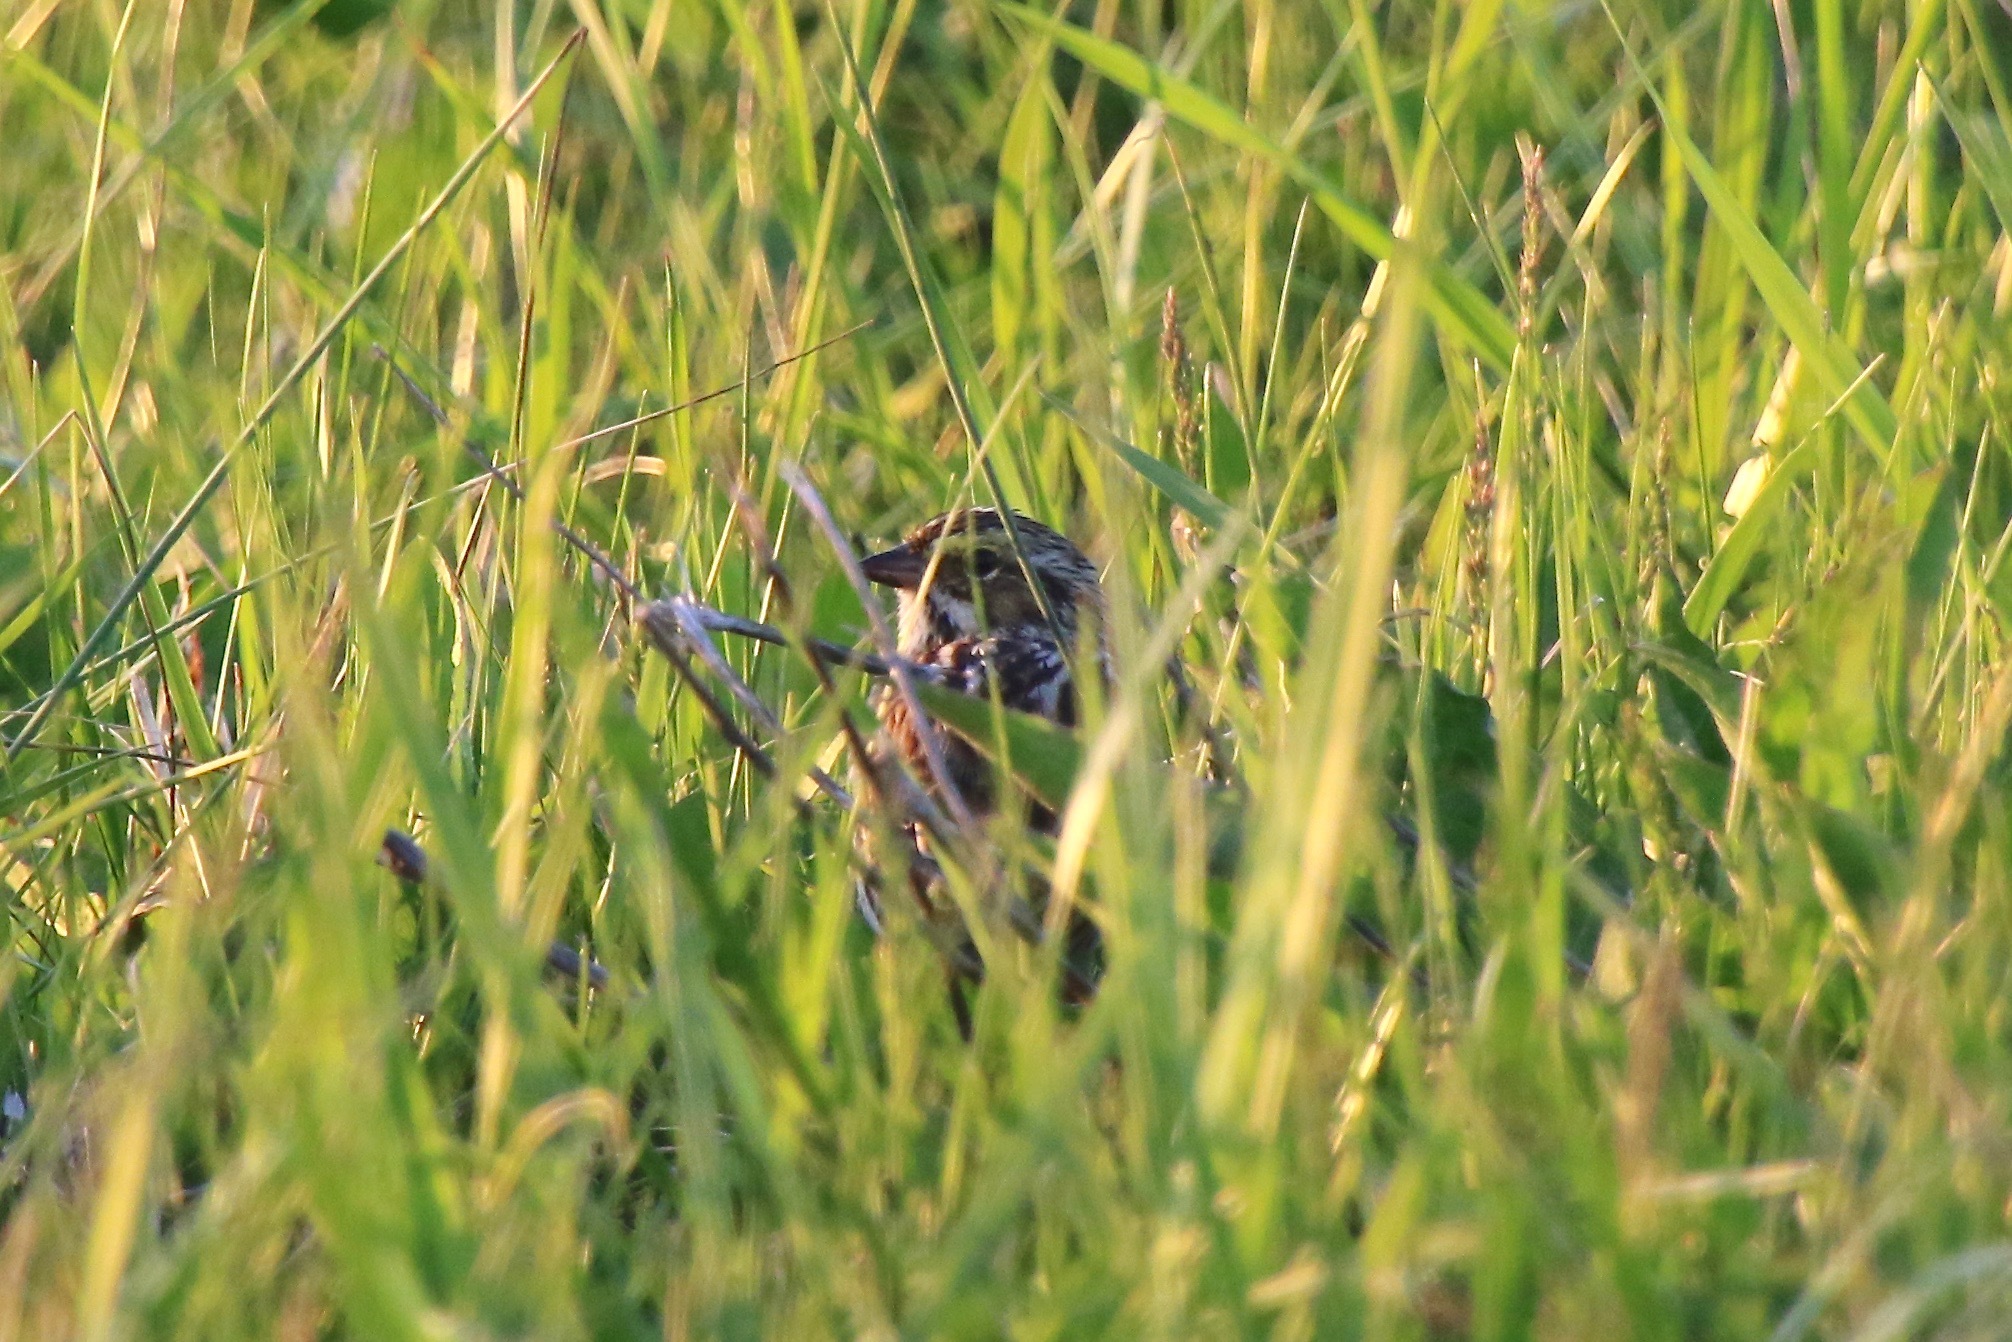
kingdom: Animalia
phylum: Chordata
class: Aves
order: Passeriformes
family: Passerellidae
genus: Passerculus
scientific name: Passerculus sandwichensis
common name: Savannah sparrow
